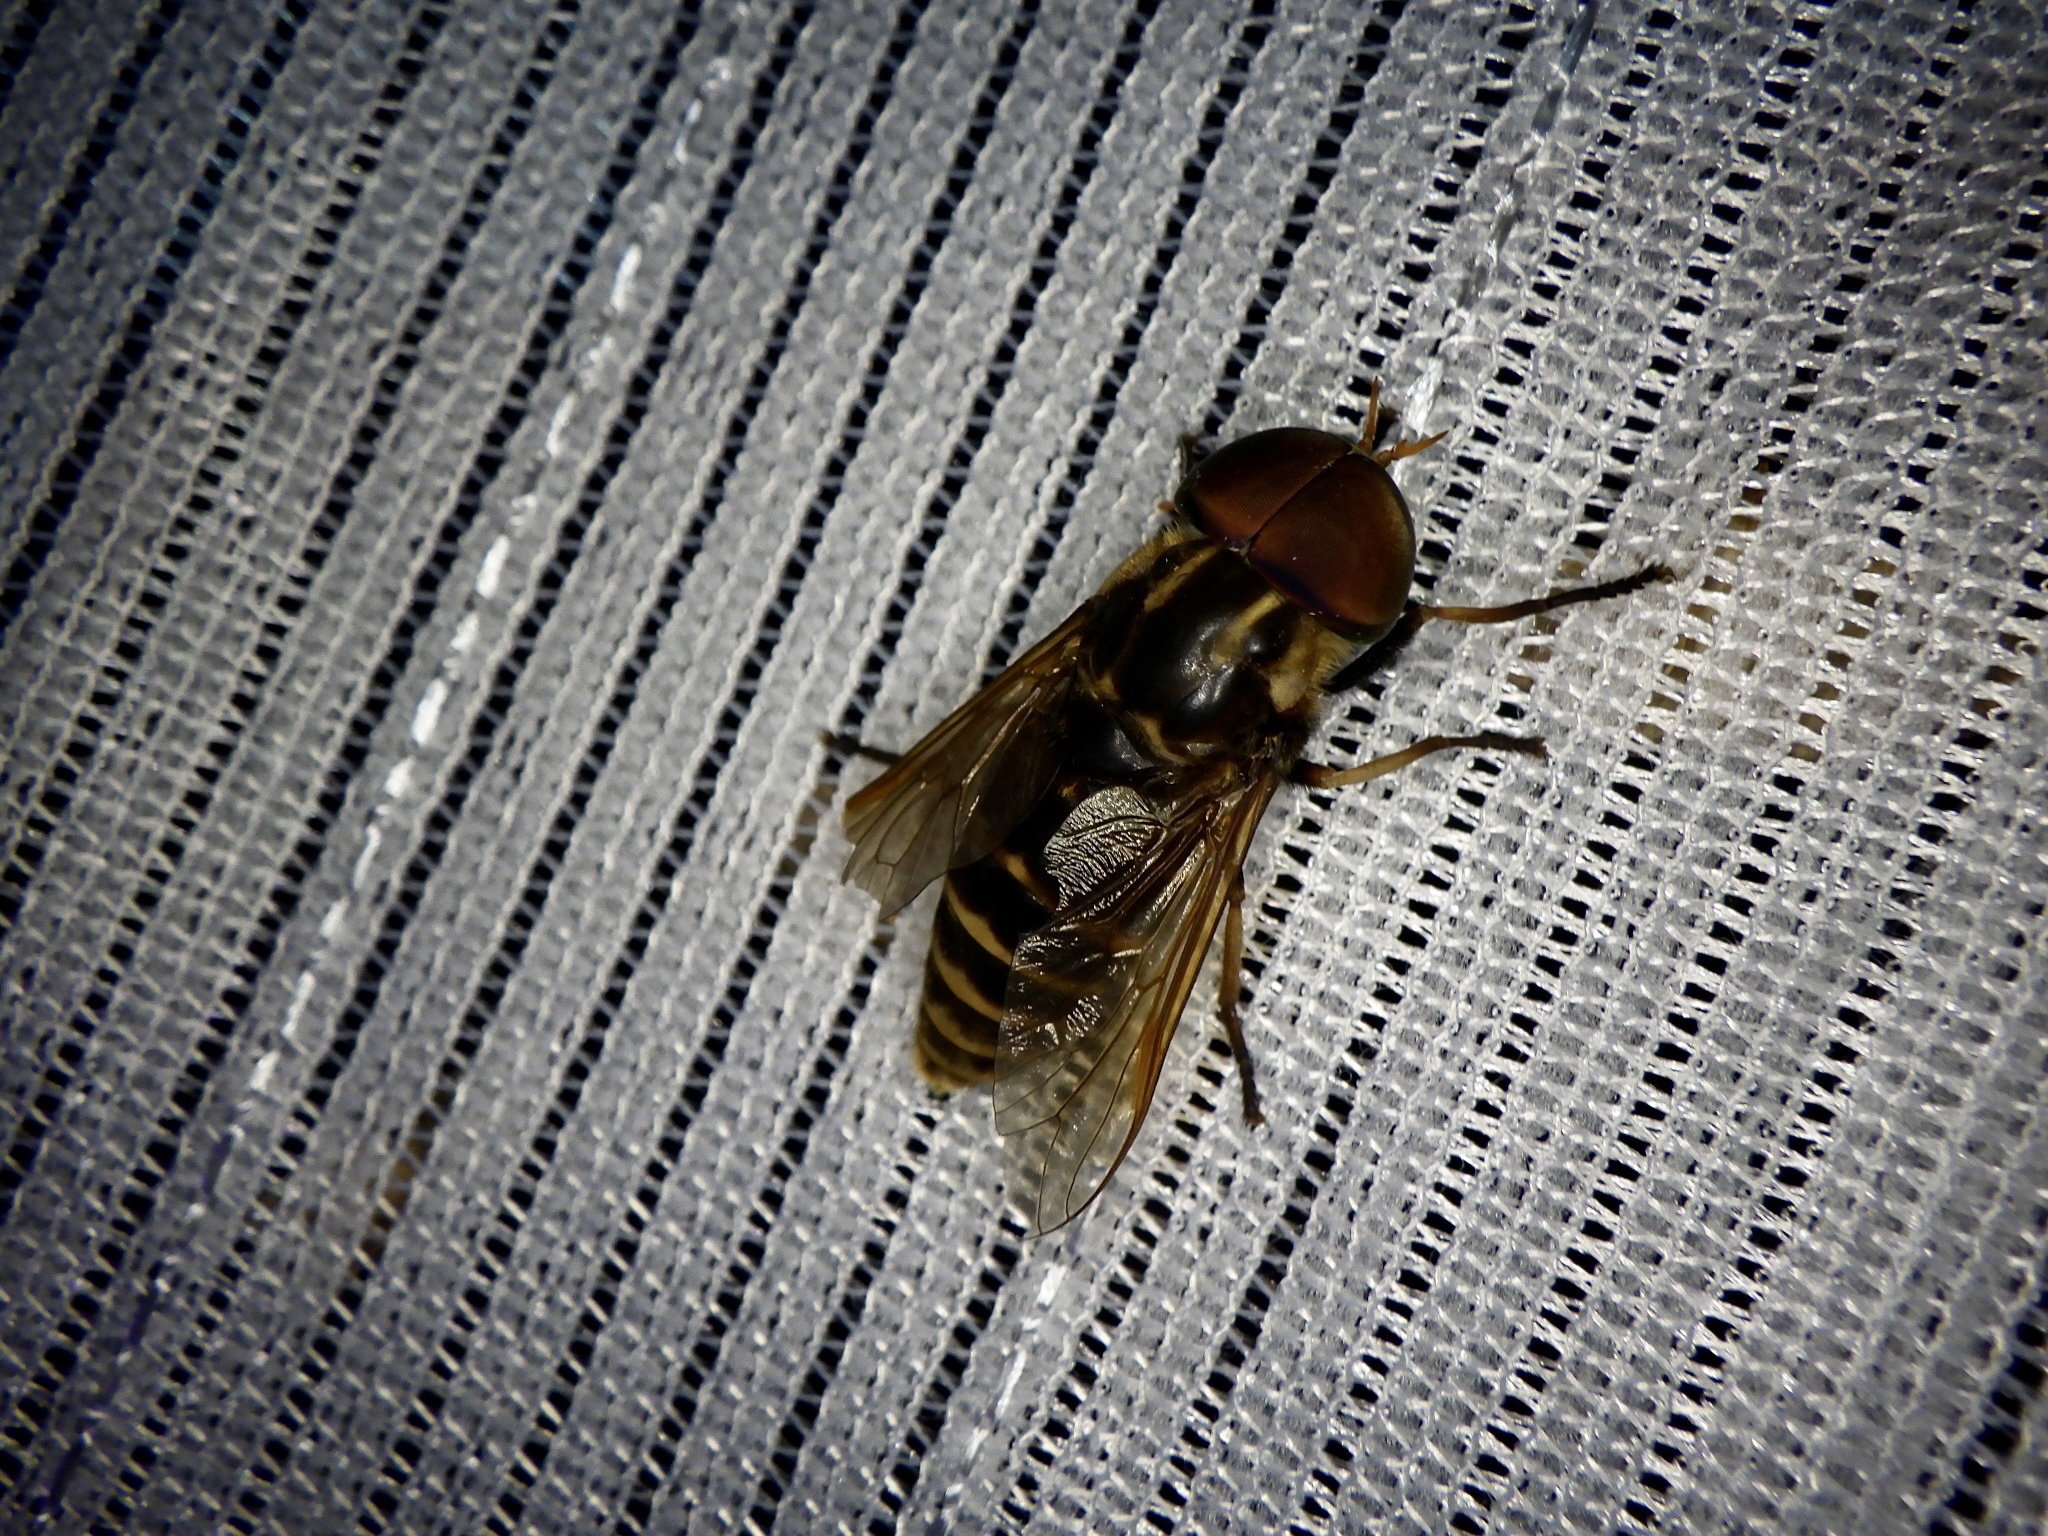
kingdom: Animalia
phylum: Arthropoda
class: Insecta
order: Diptera
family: Tabanidae
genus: Tabanus
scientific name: Tabanus chrysurus
